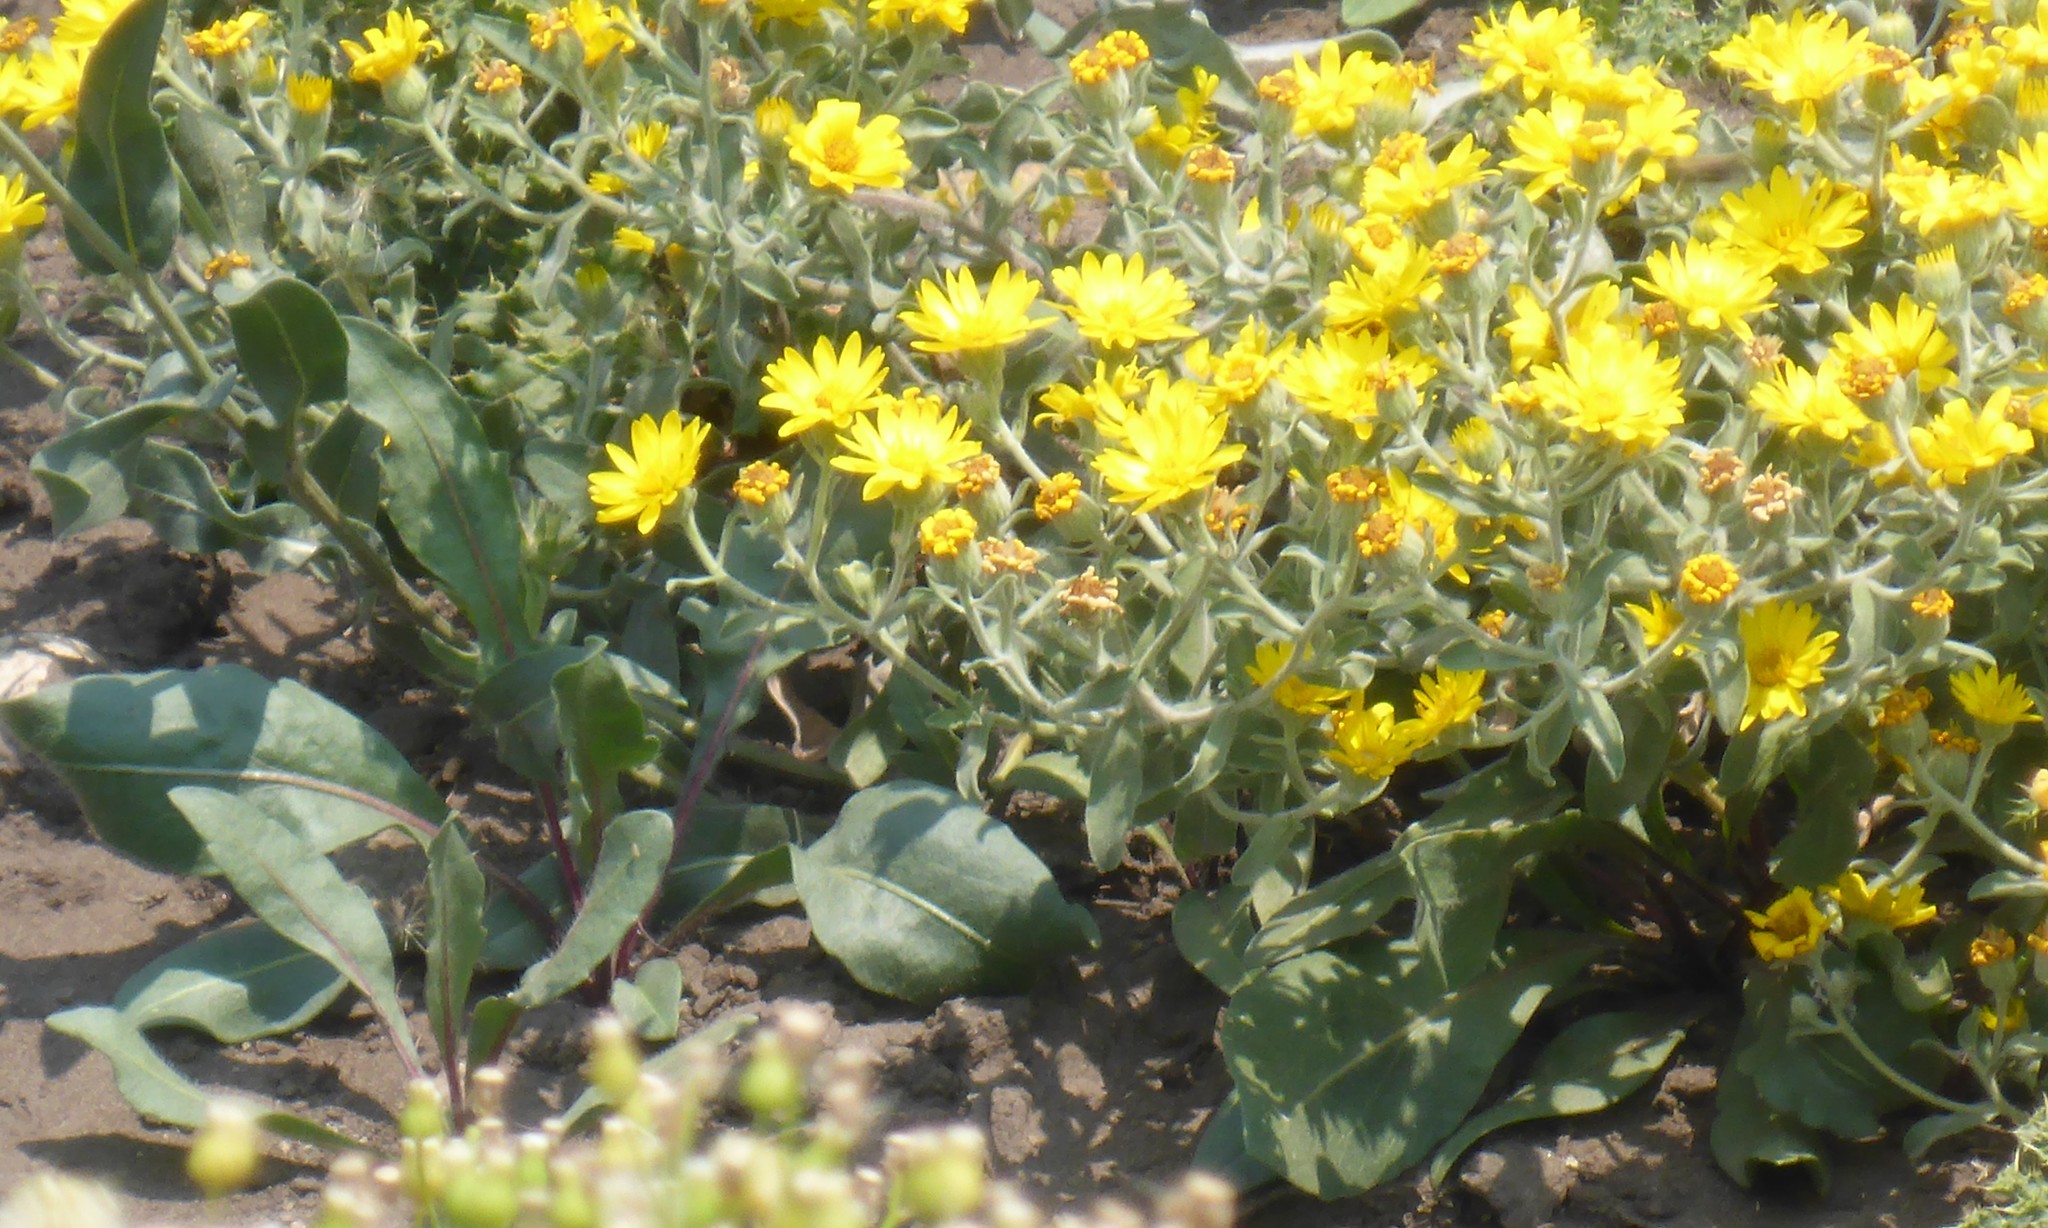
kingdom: Plantae
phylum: Tracheophyta
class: Magnoliopsida
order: Asterales
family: Asteraceae
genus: Heterotheca
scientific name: Heterotheca villosa
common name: Hairy false goldenaster
